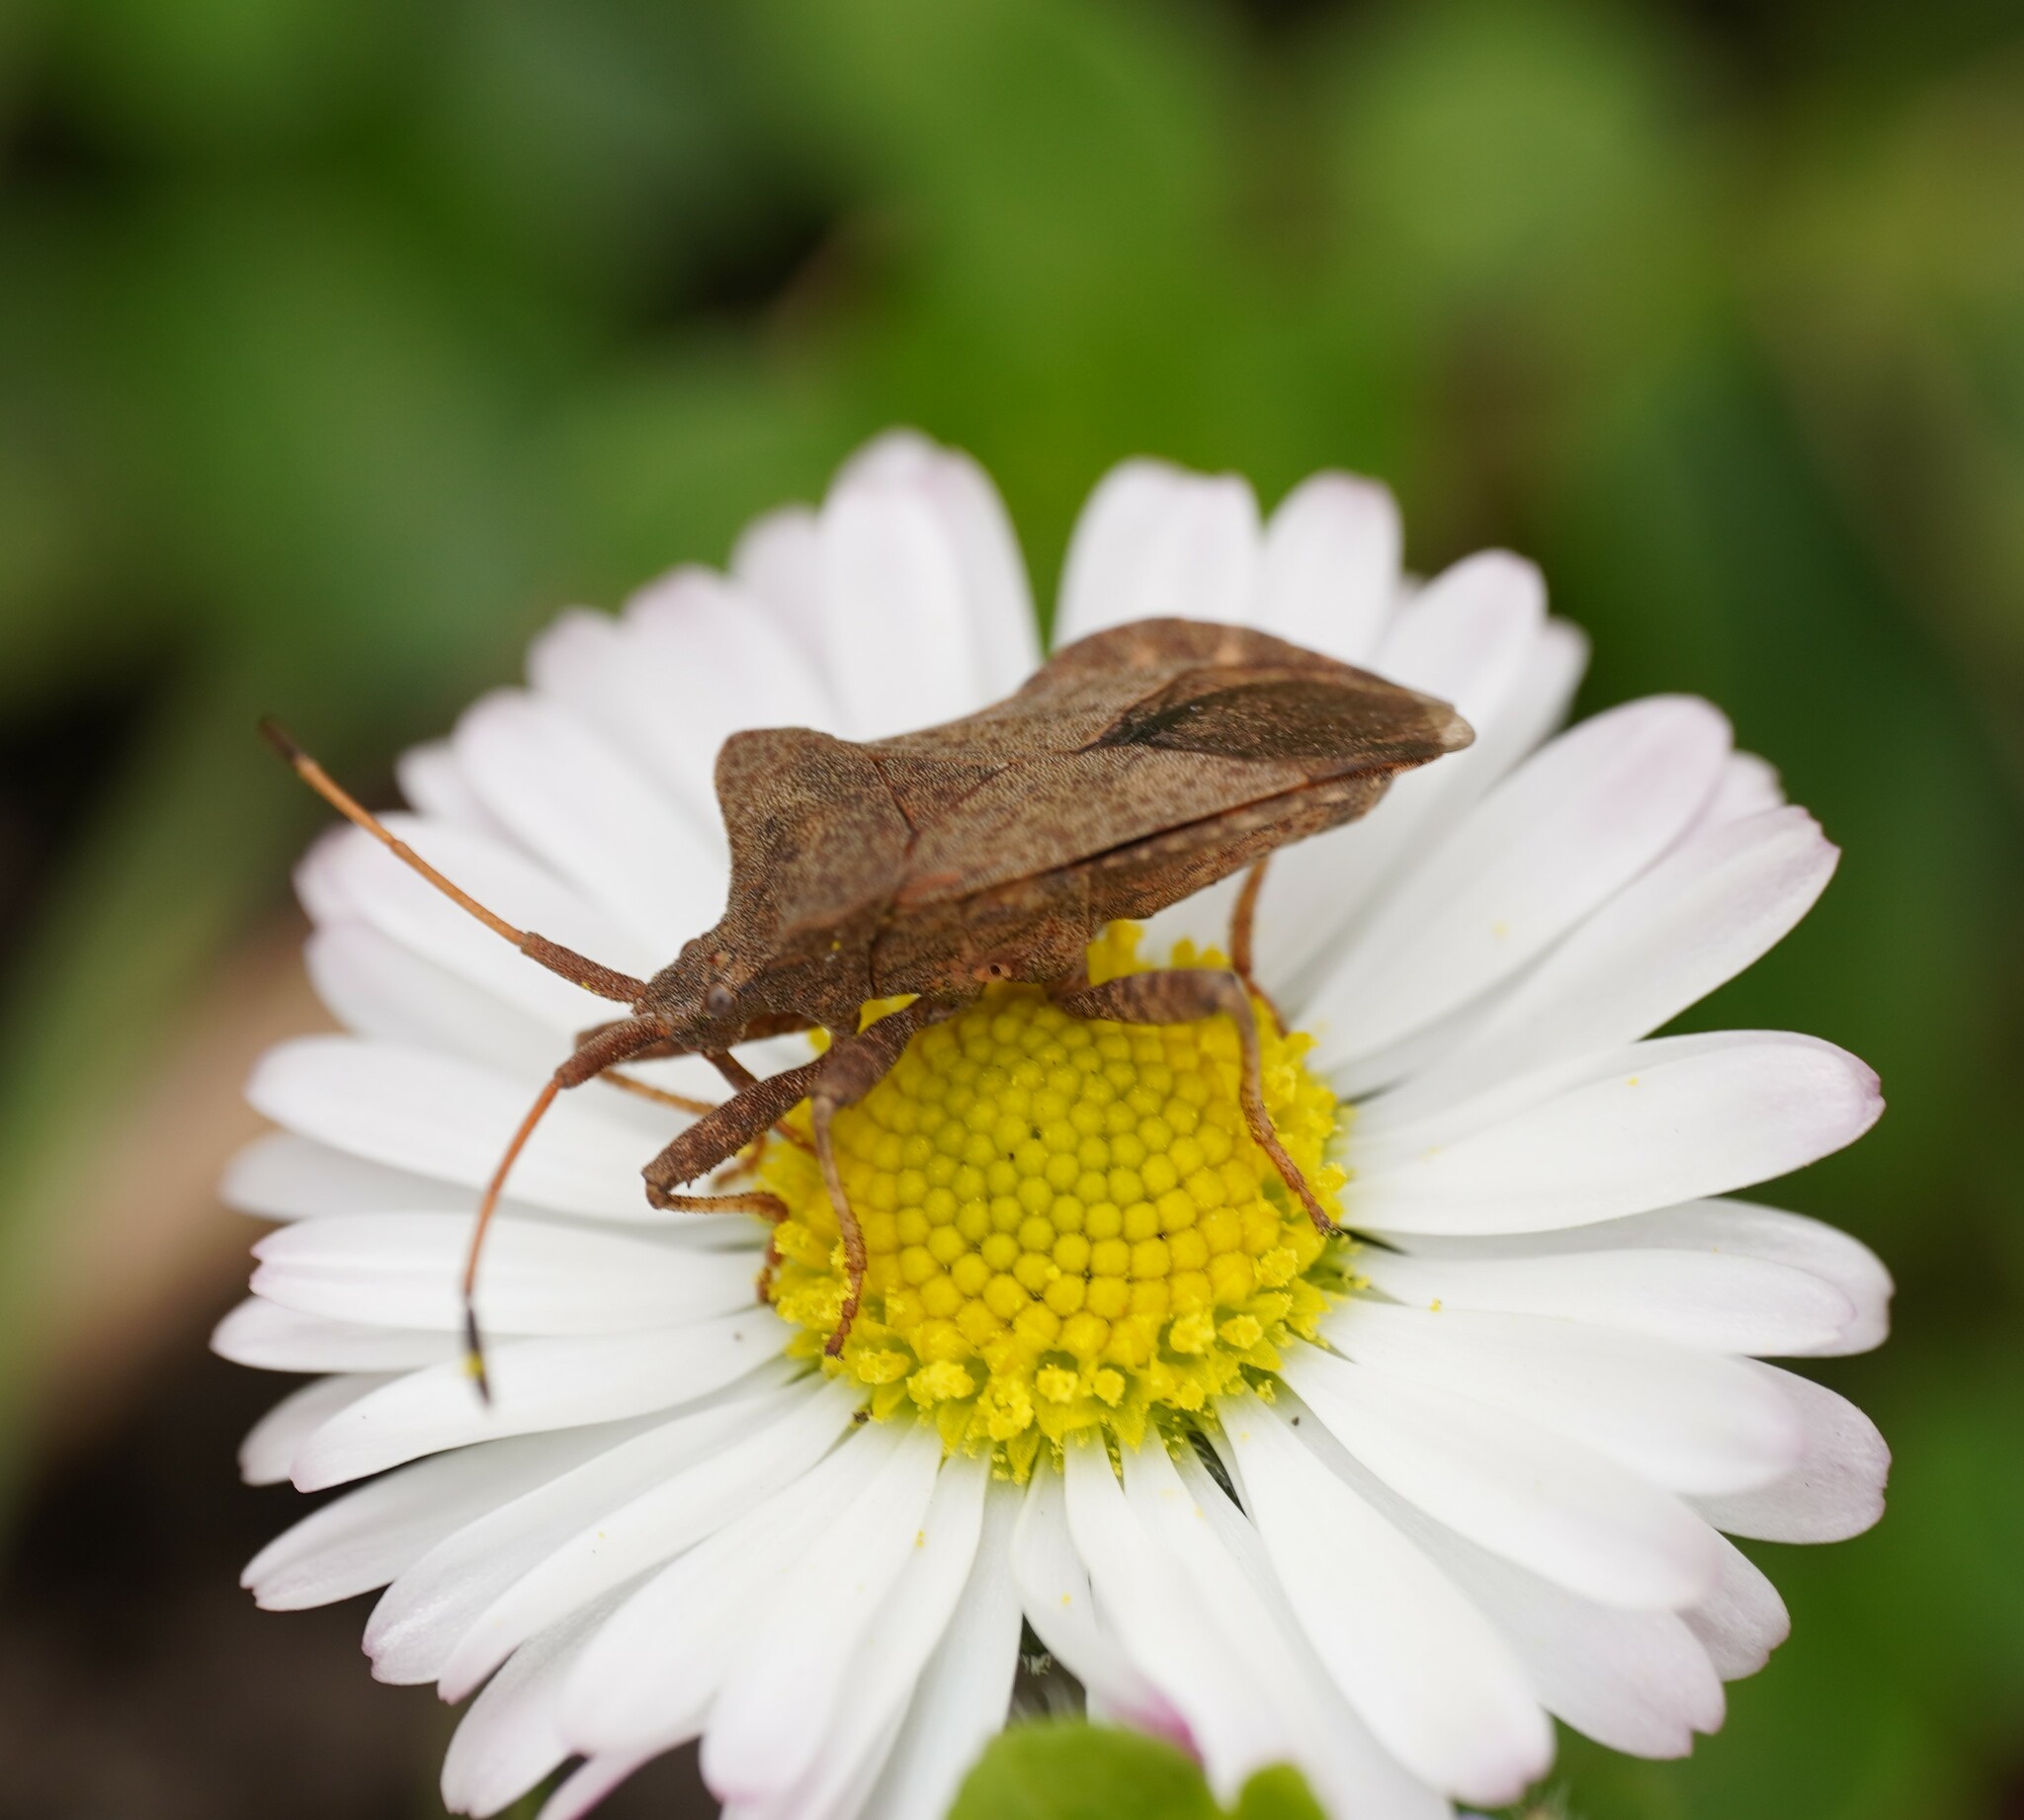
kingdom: Animalia
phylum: Arthropoda
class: Insecta
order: Hemiptera
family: Coreidae
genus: Coreus
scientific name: Coreus marginatus
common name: Dock bug
